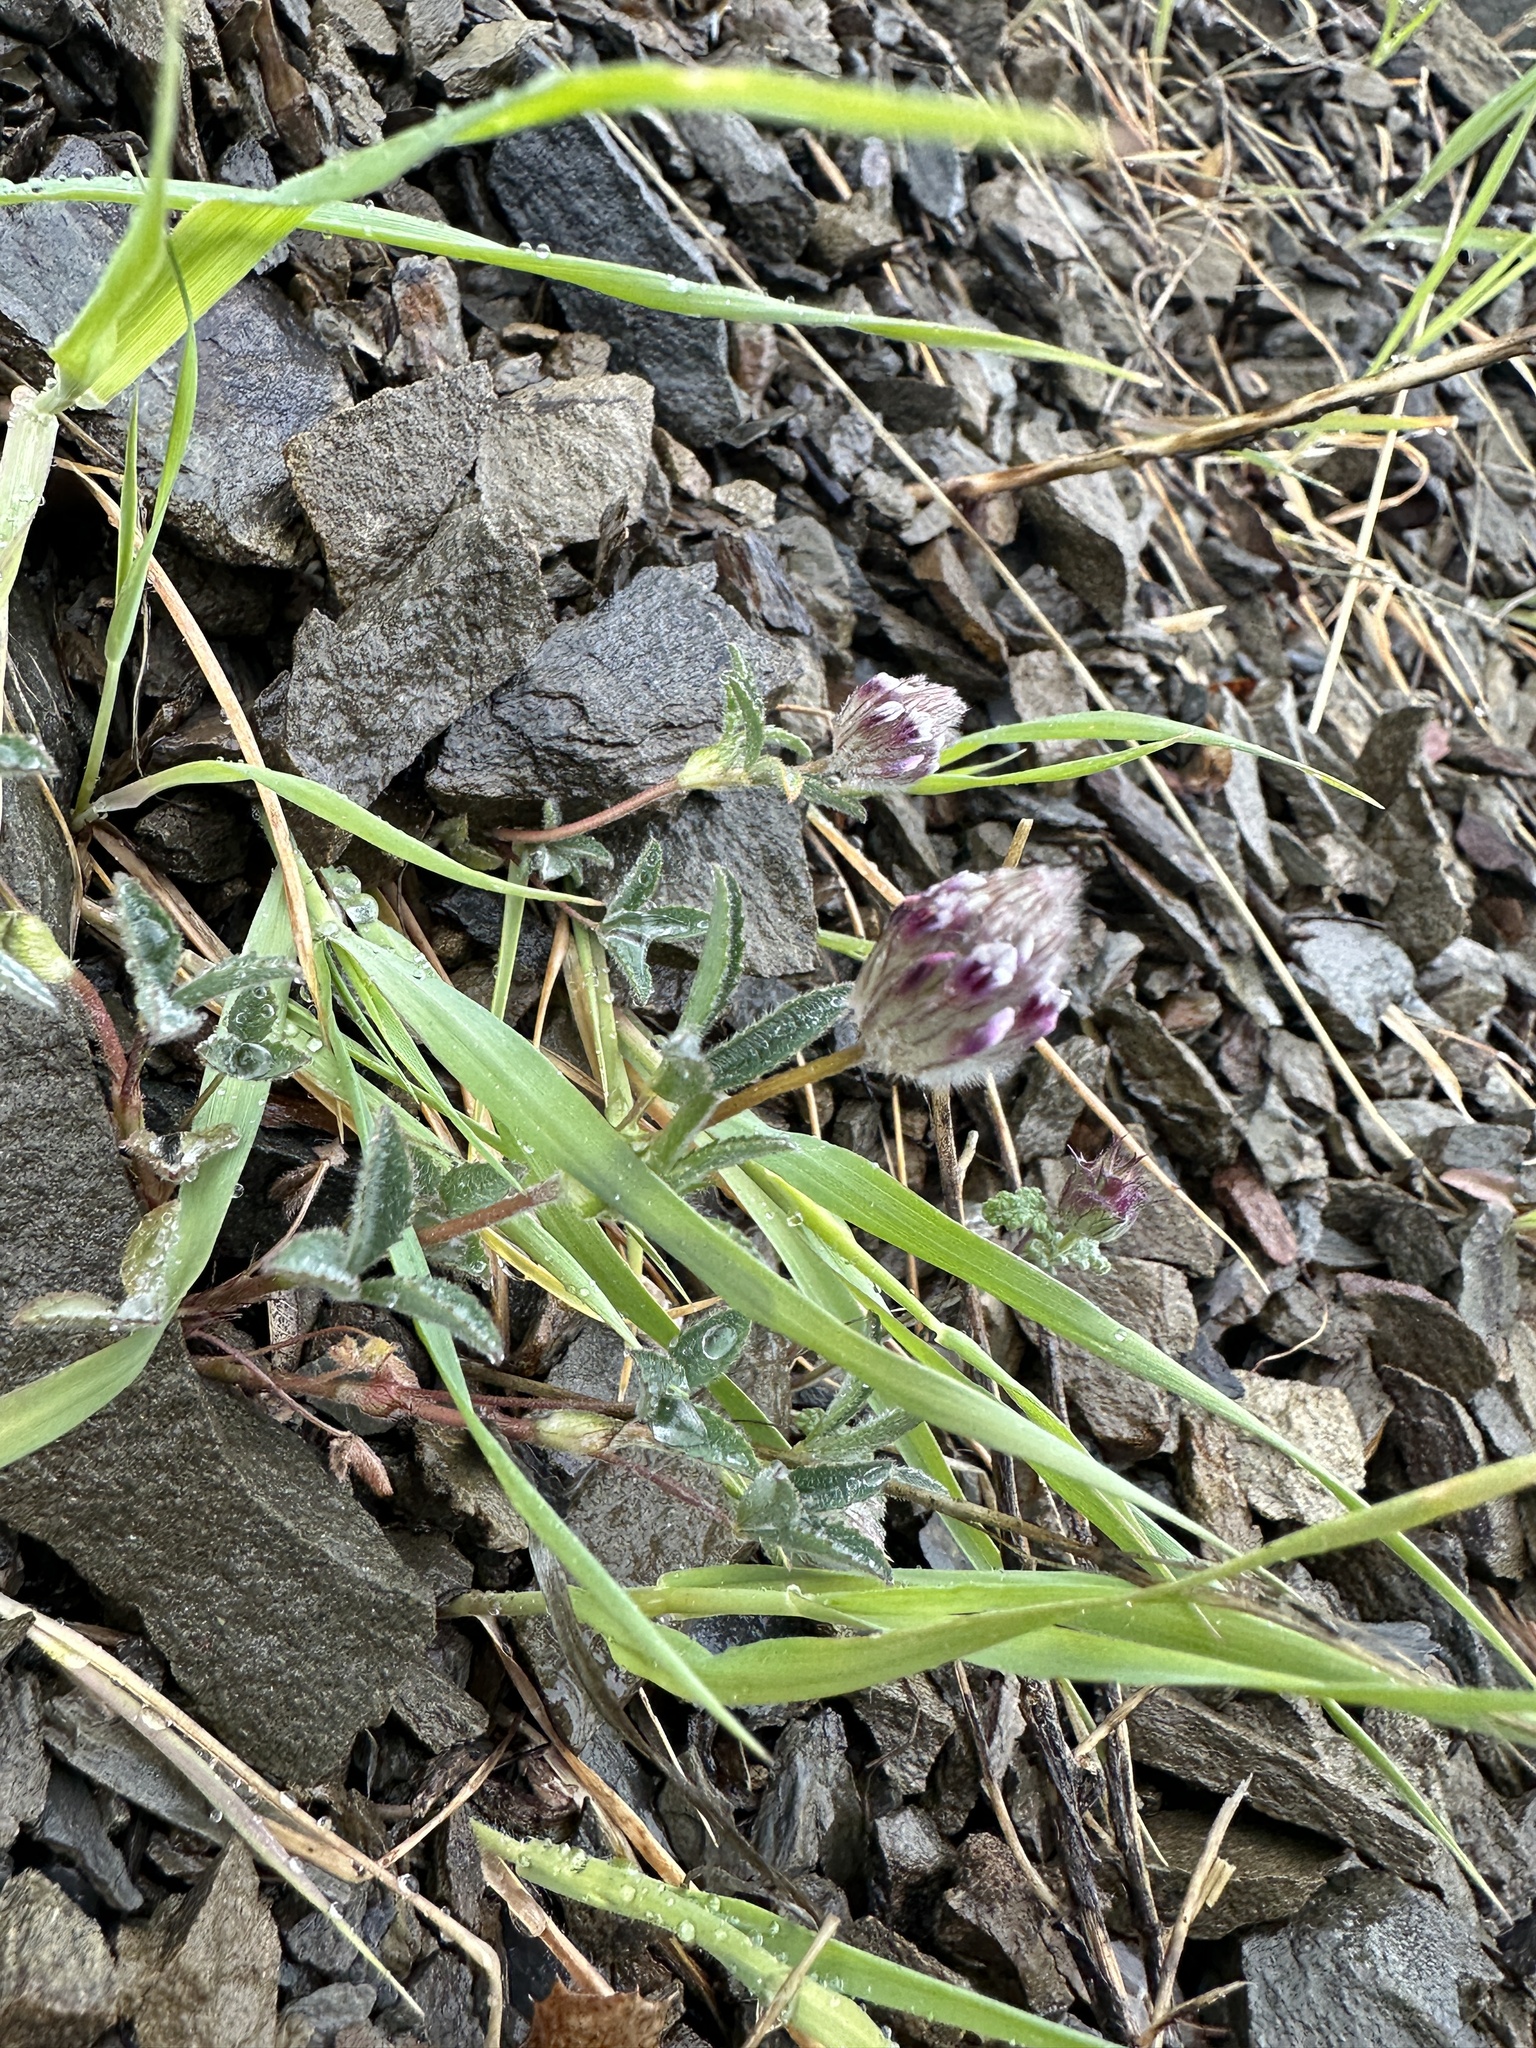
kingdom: Plantae
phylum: Tracheophyta
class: Magnoliopsida
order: Fabales
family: Fabaceae
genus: Trifolium
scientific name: Trifolium albopurpureum
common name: Rancheria clover
